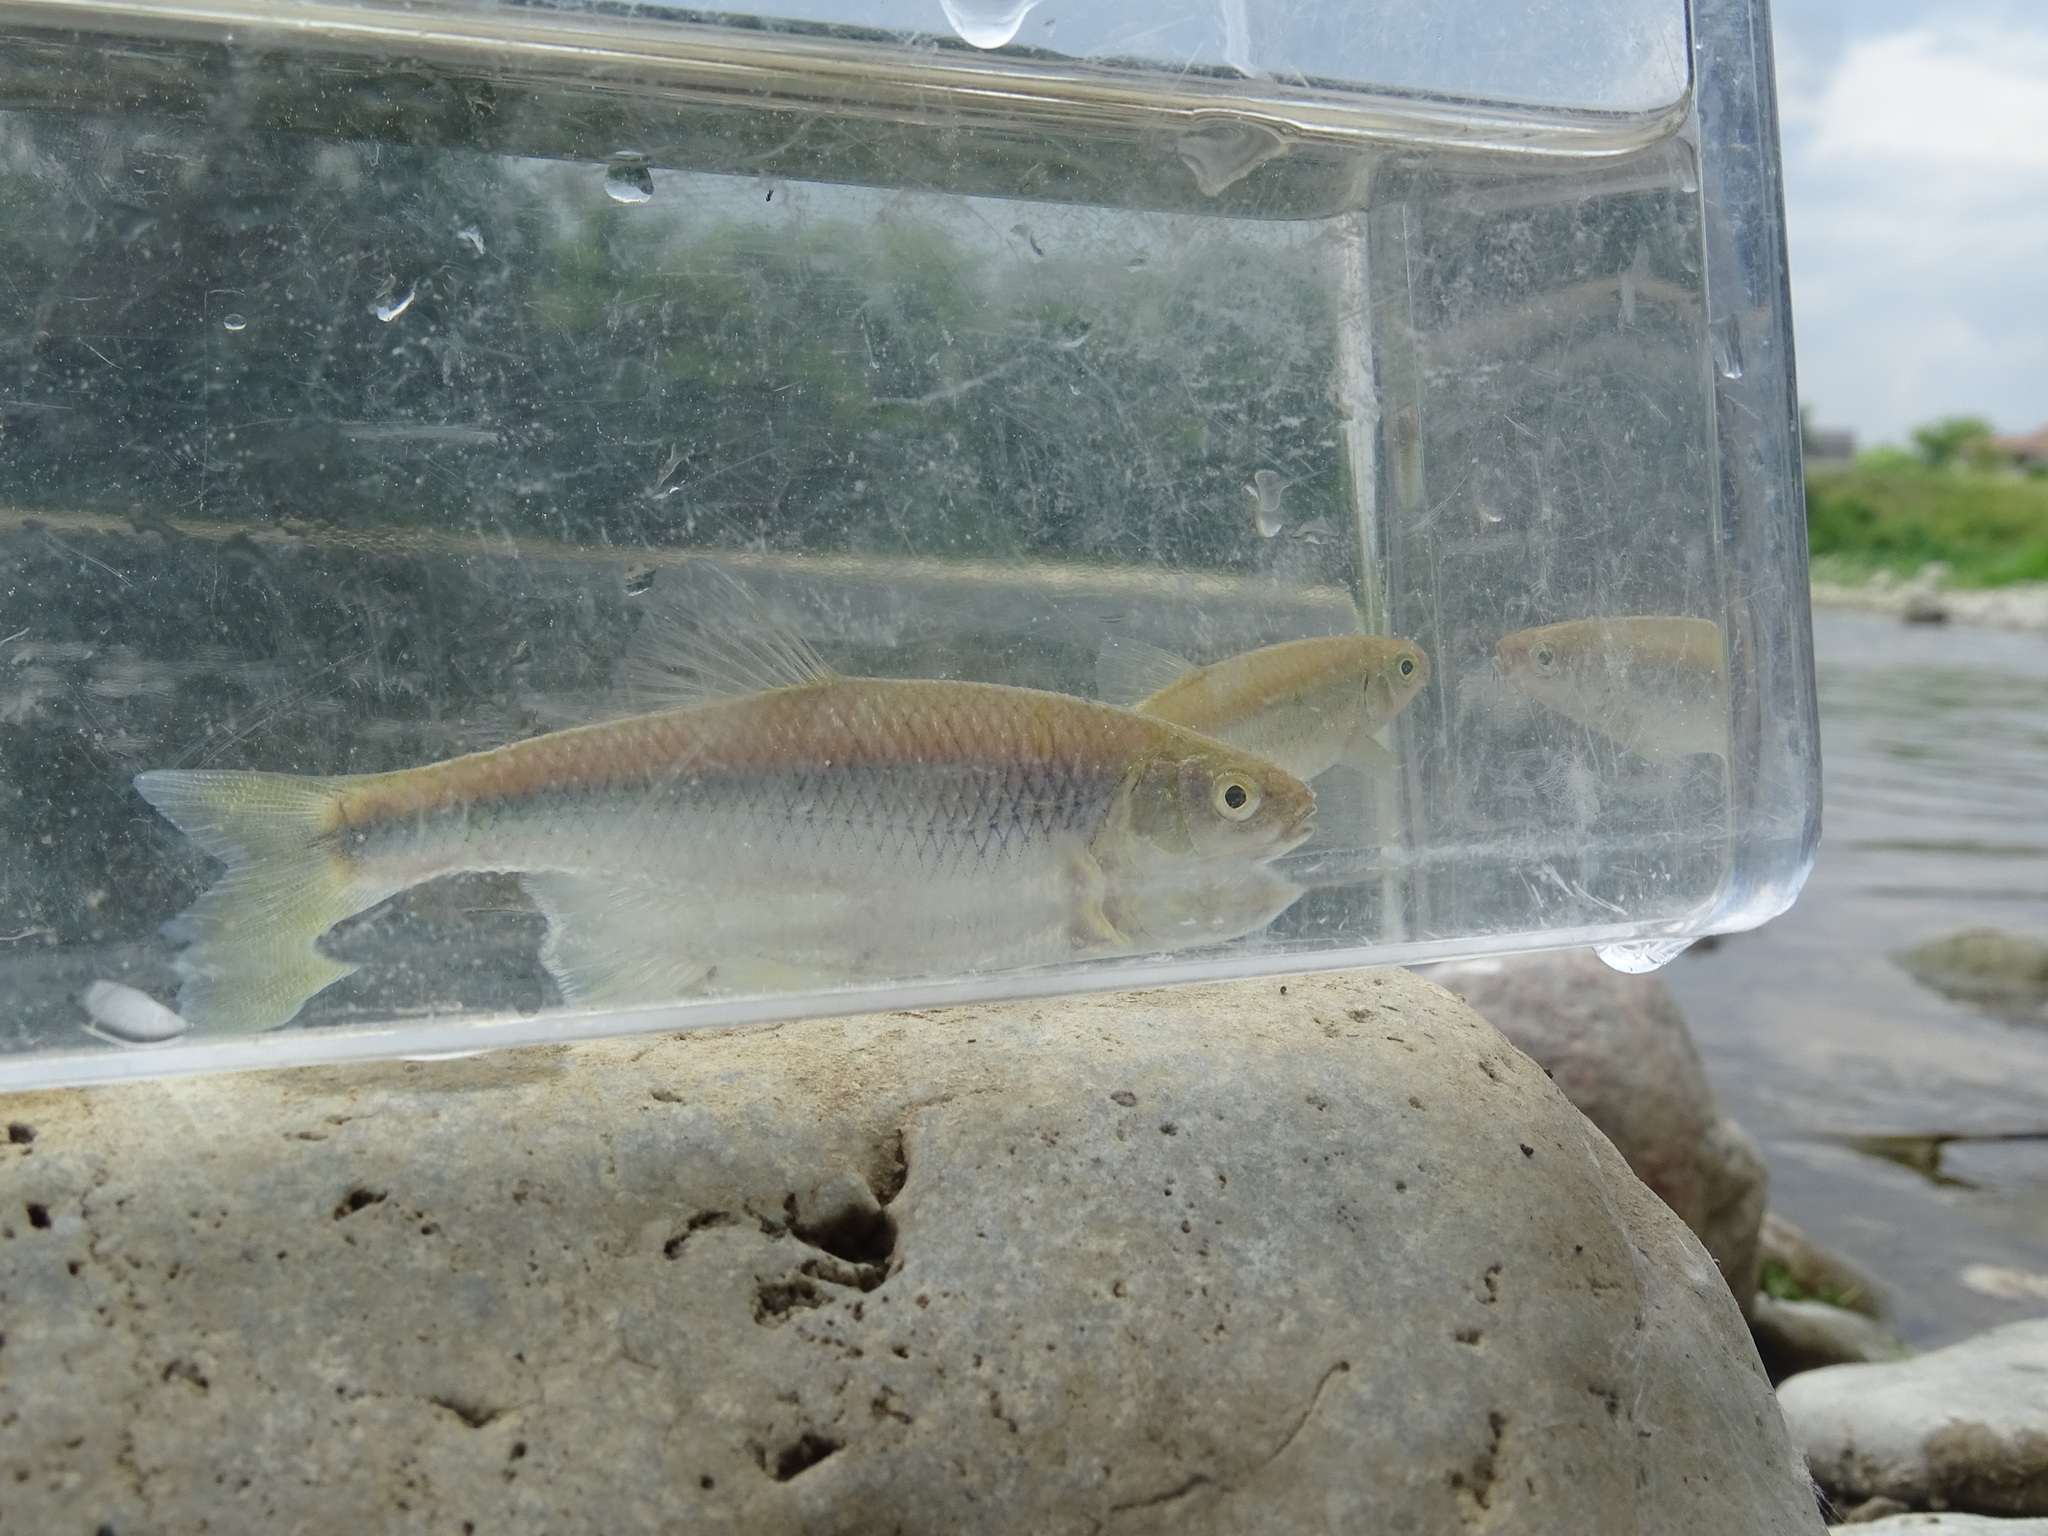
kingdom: Animalia
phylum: Chordata
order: Cypriniformes
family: Cyprinidae
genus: Cyprinella
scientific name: Cyprinella spiloptera
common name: Spotfin shiner
